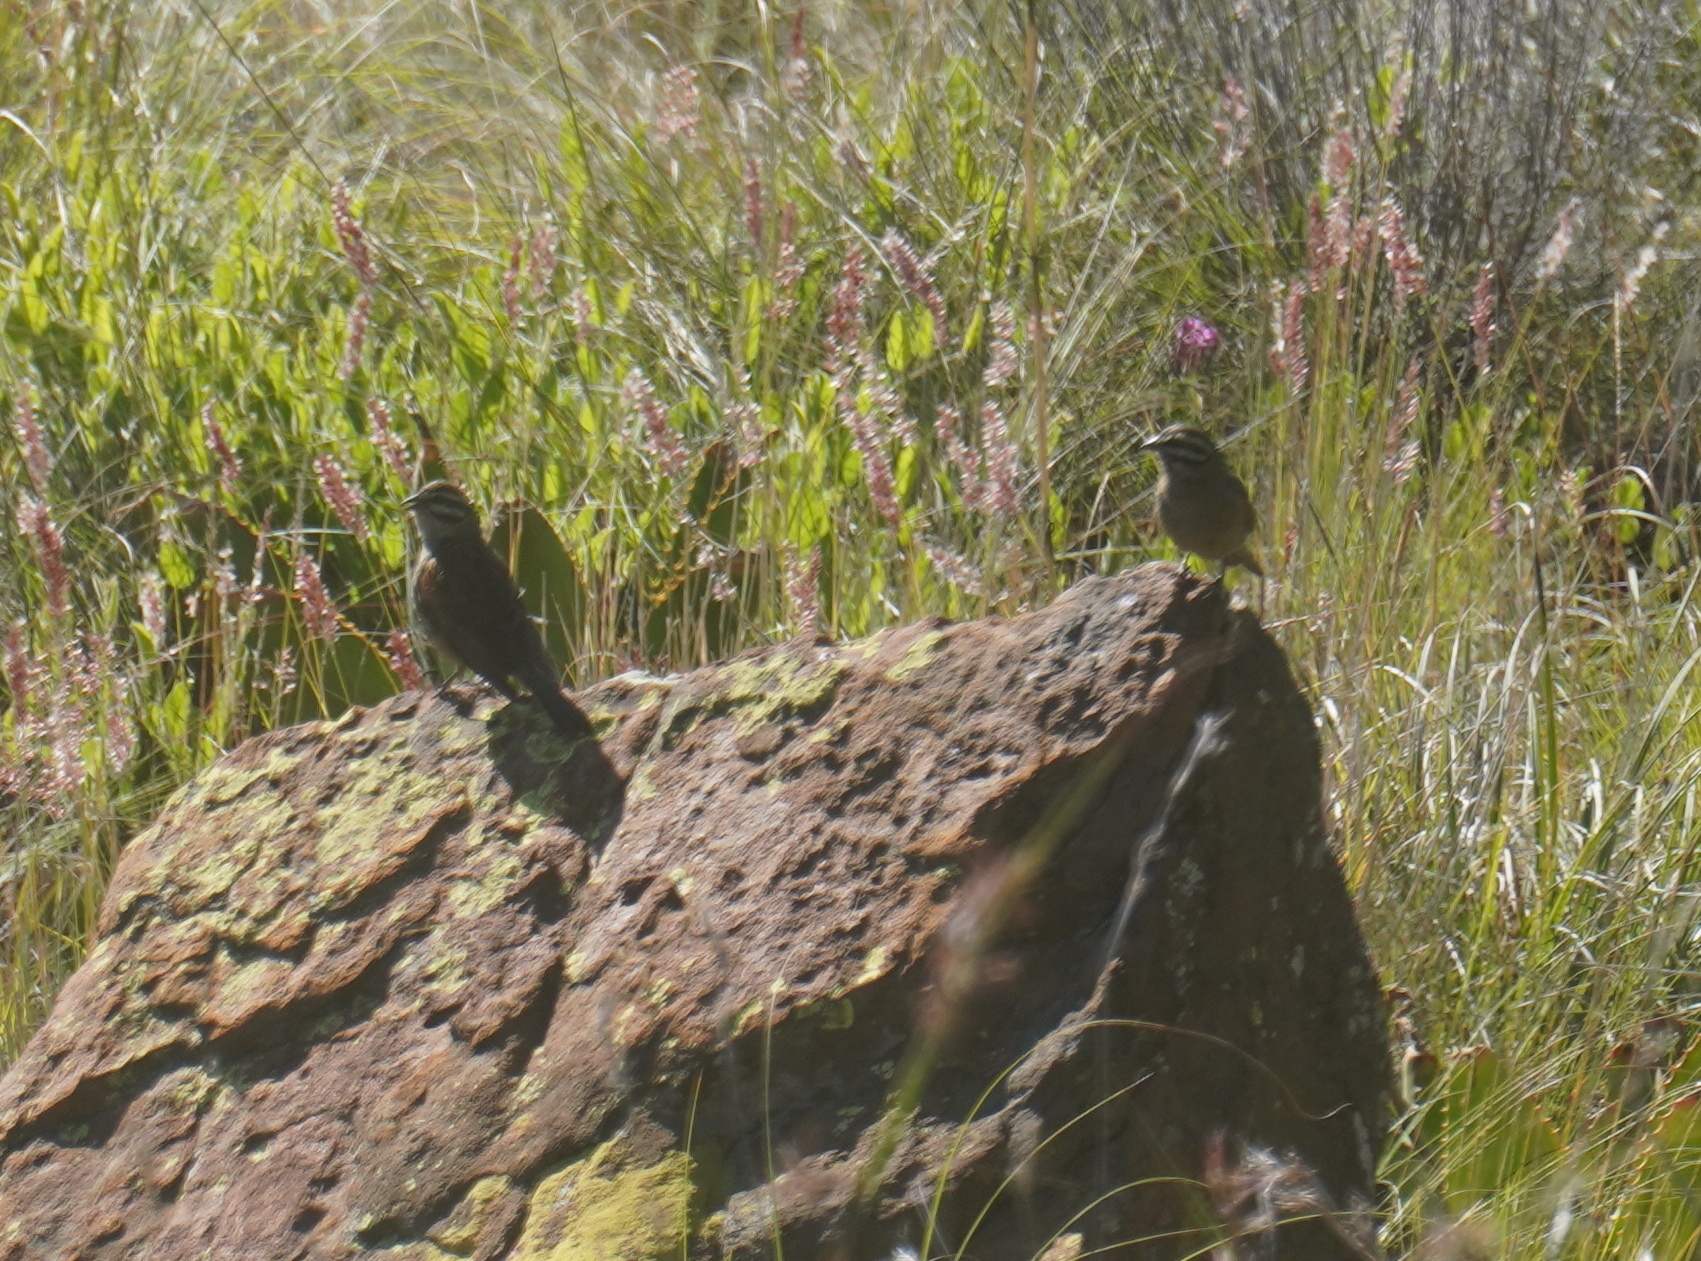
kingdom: Animalia
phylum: Chordata
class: Aves
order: Passeriformes
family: Emberizidae
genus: Emberiza
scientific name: Emberiza capensis
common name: Cape bunting
